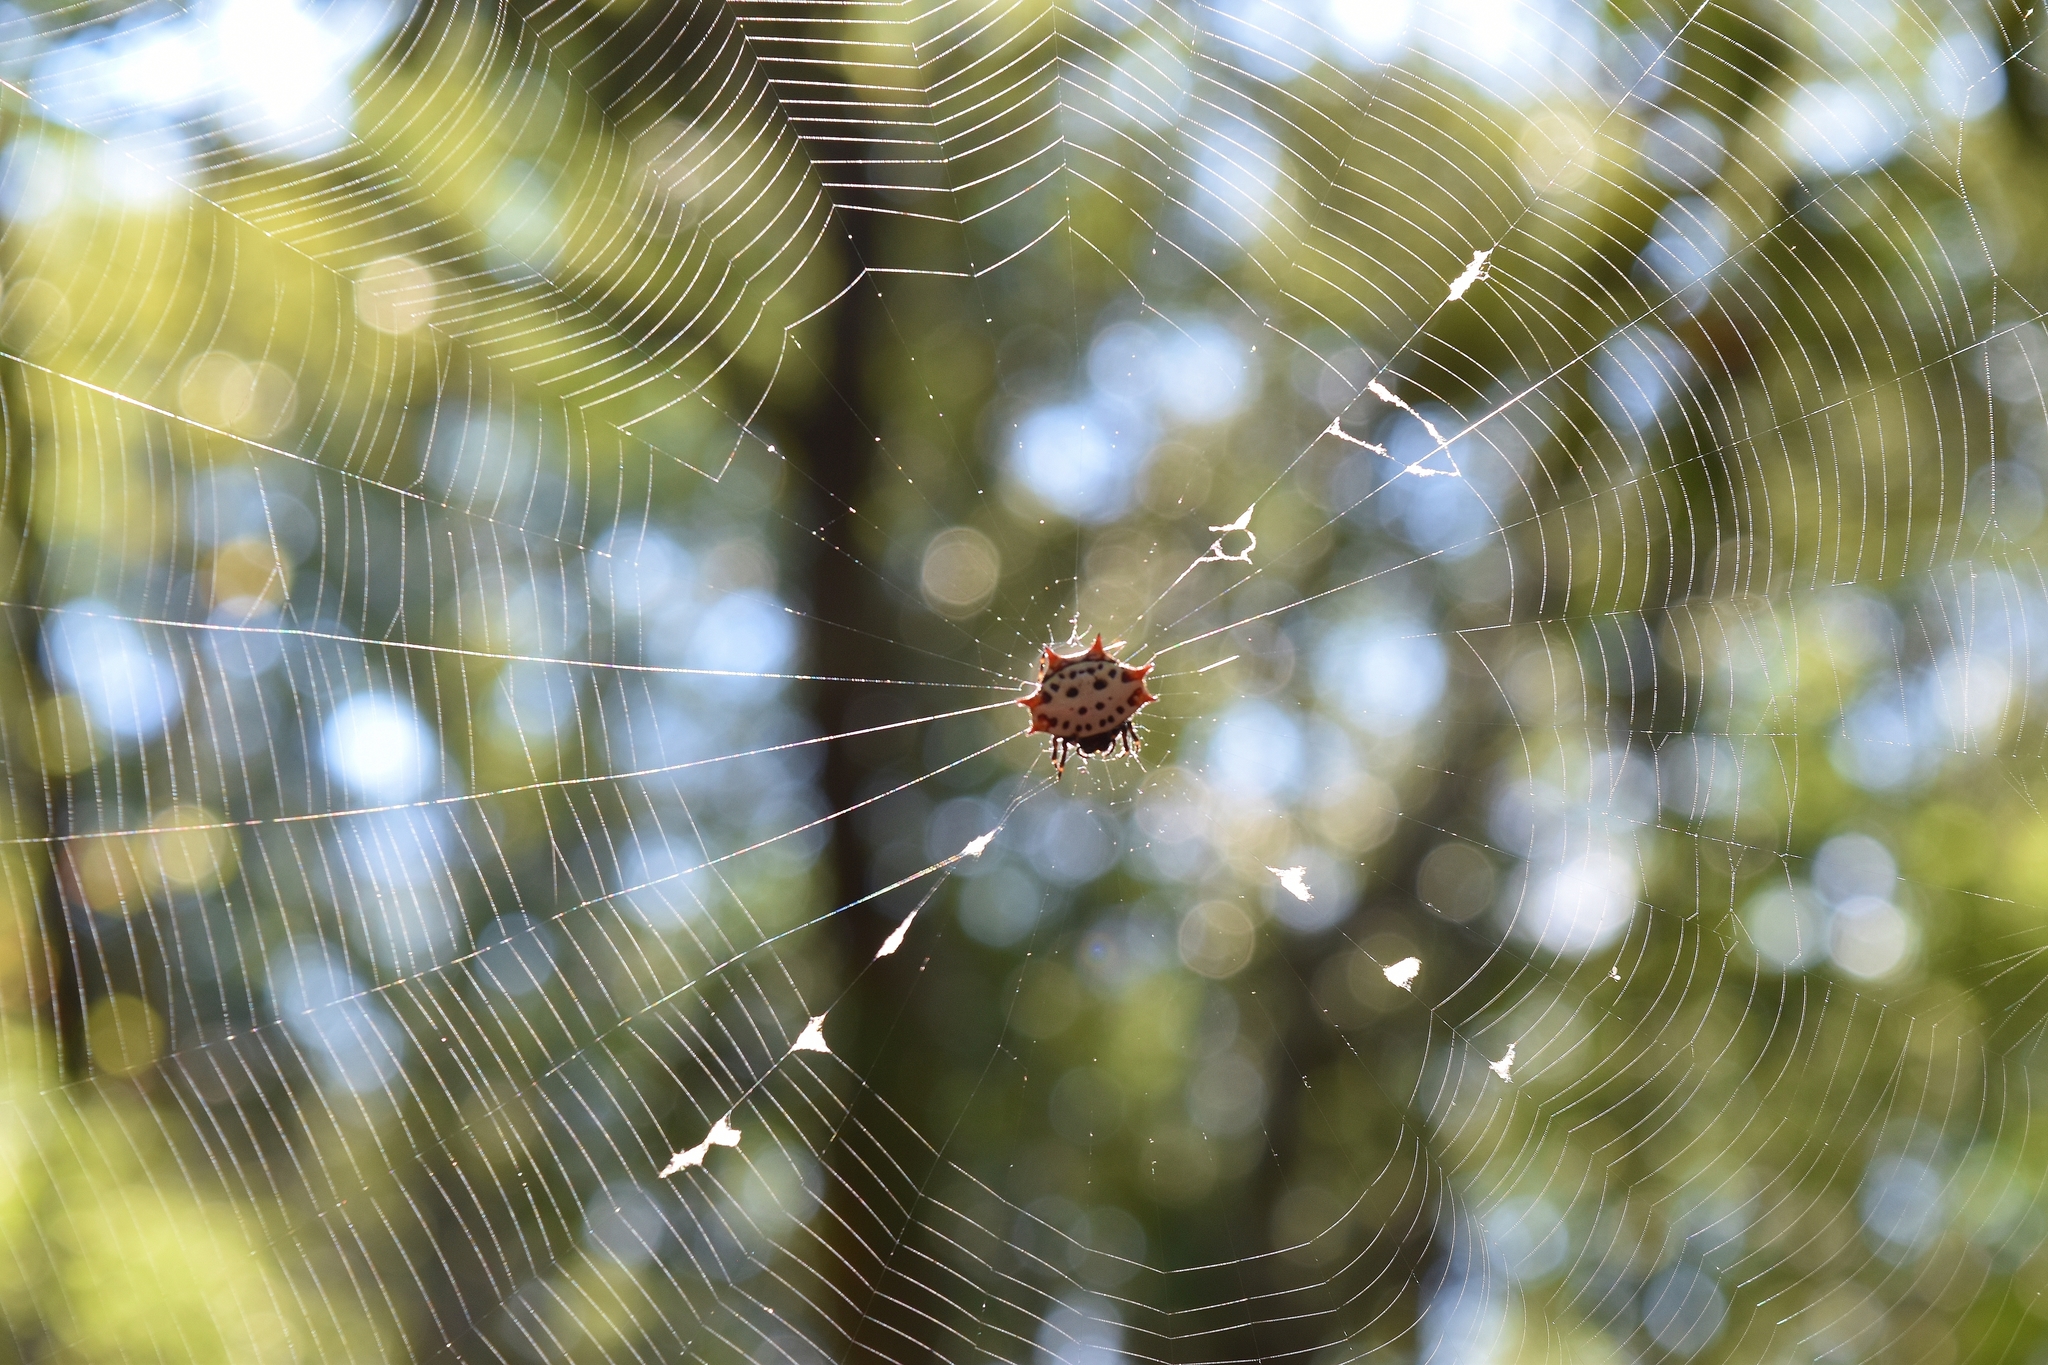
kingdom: Animalia
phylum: Arthropoda
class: Arachnida
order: Araneae
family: Araneidae
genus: Gasteracantha
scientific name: Gasteracantha cancriformis
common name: Orb weavers
